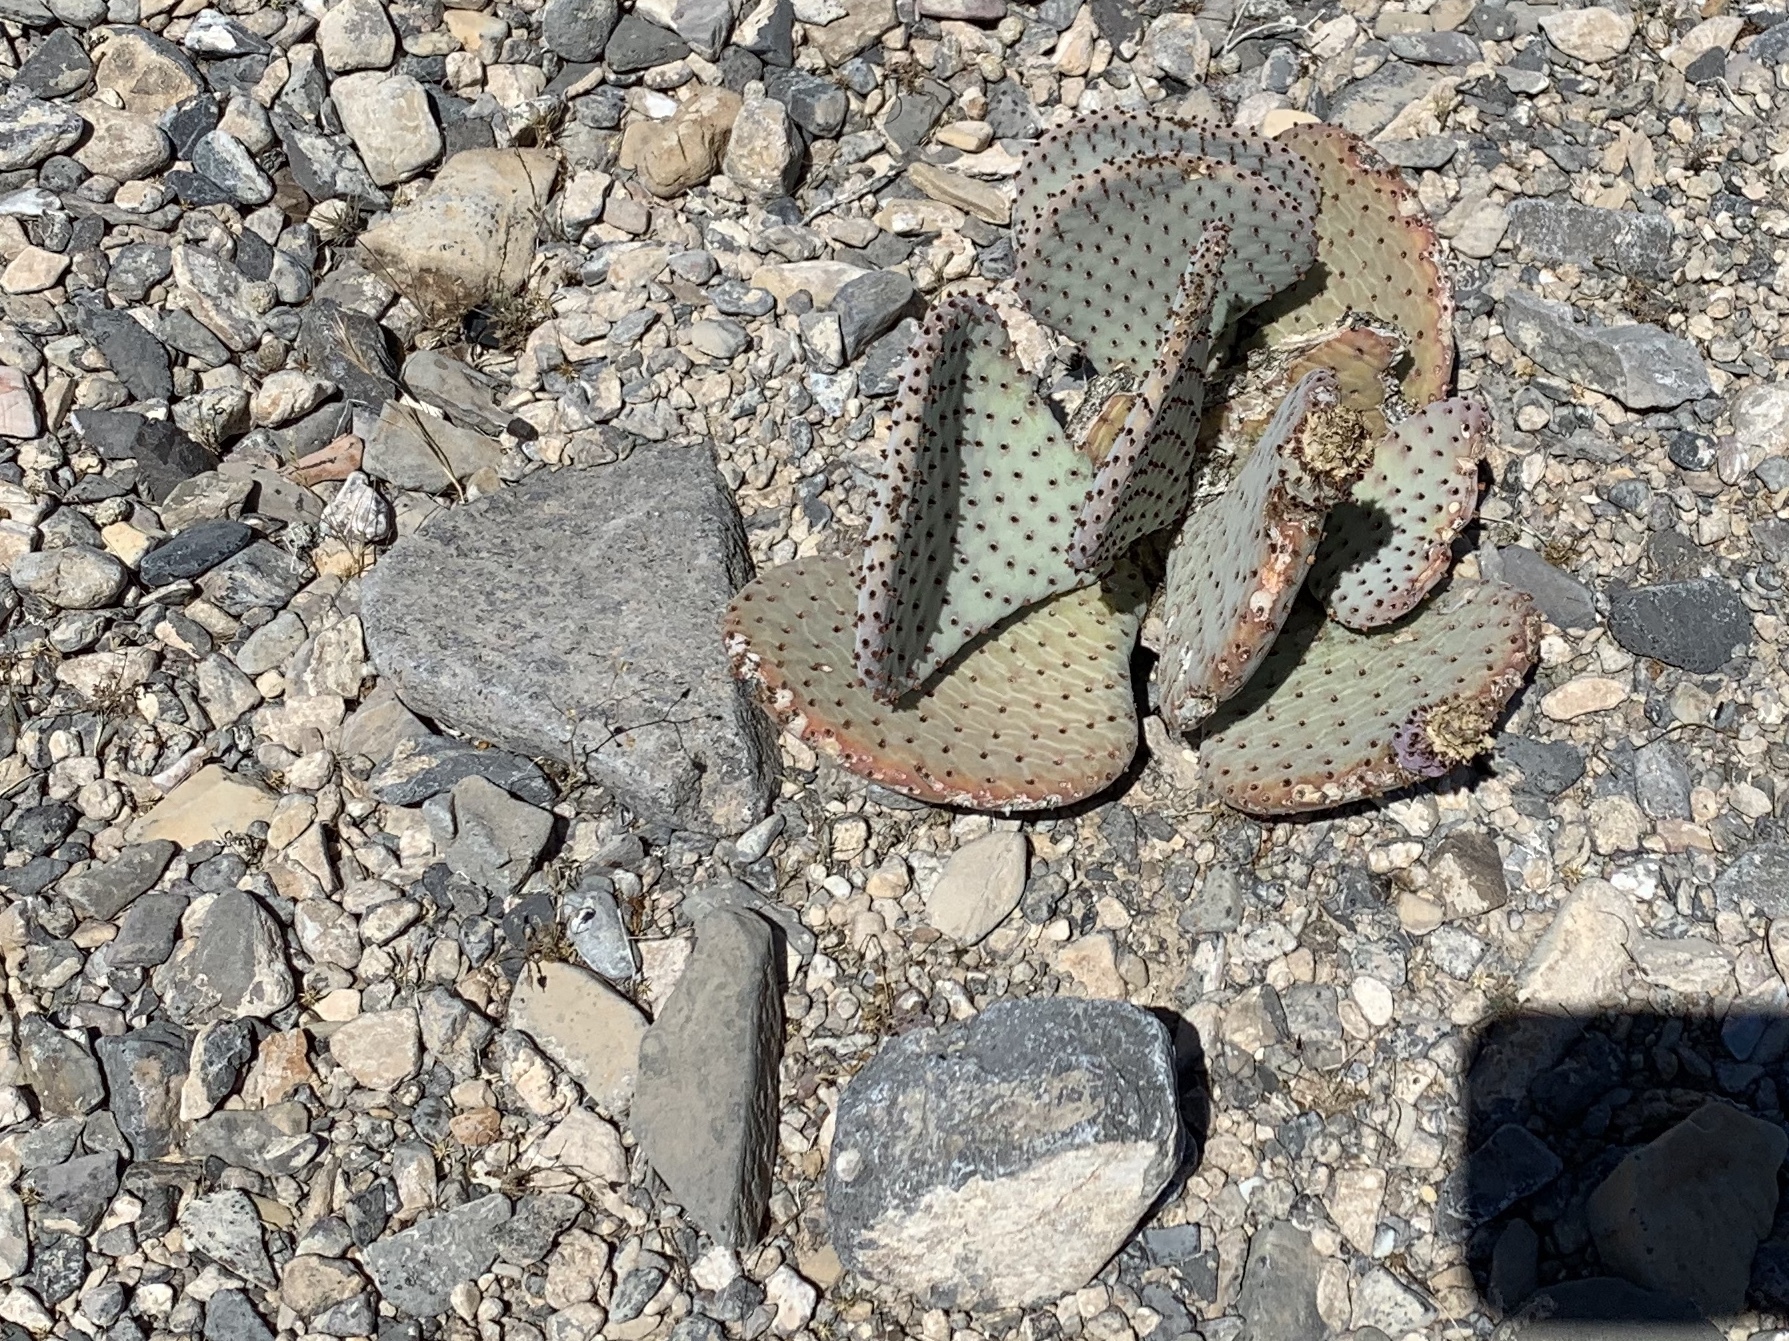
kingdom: Plantae
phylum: Tracheophyta
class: Magnoliopsida
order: Caryophyllales
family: Cactaceae
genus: Opuntia
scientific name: Opuntia basilaris
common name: Beavertail prickly-pear
